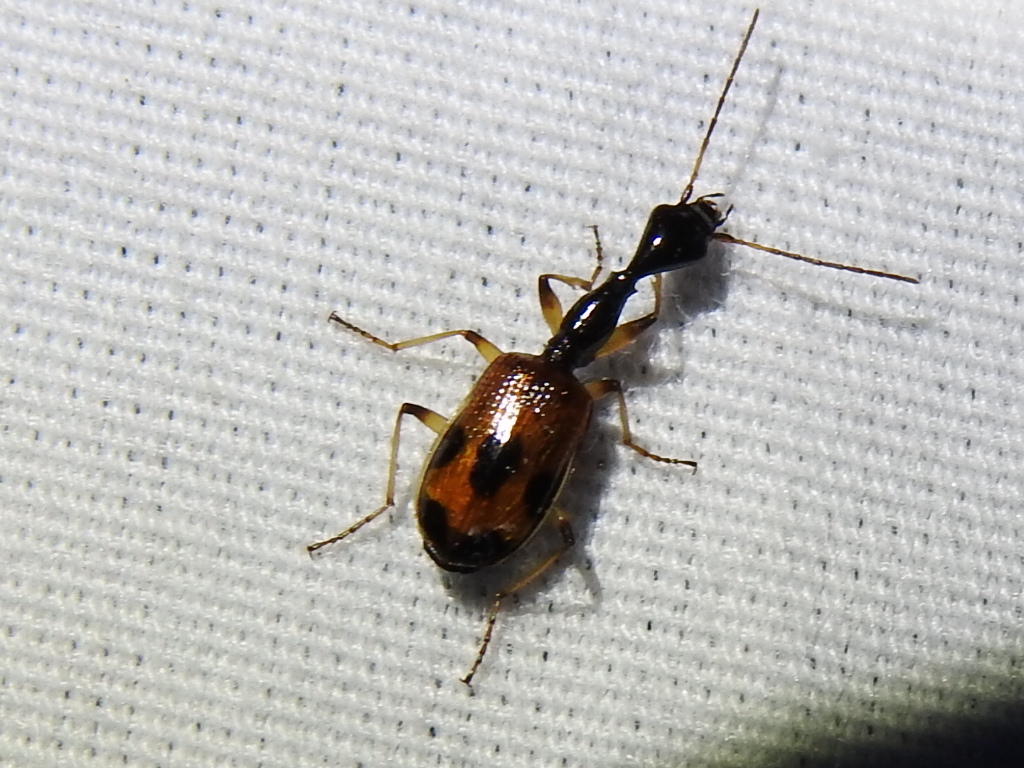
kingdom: Animalia
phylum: Arthropoda
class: Insecta
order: Coleoptera
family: Carabidae
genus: Colliuris
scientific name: Colliuris pensylvanica
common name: Long-necked ground beetle
